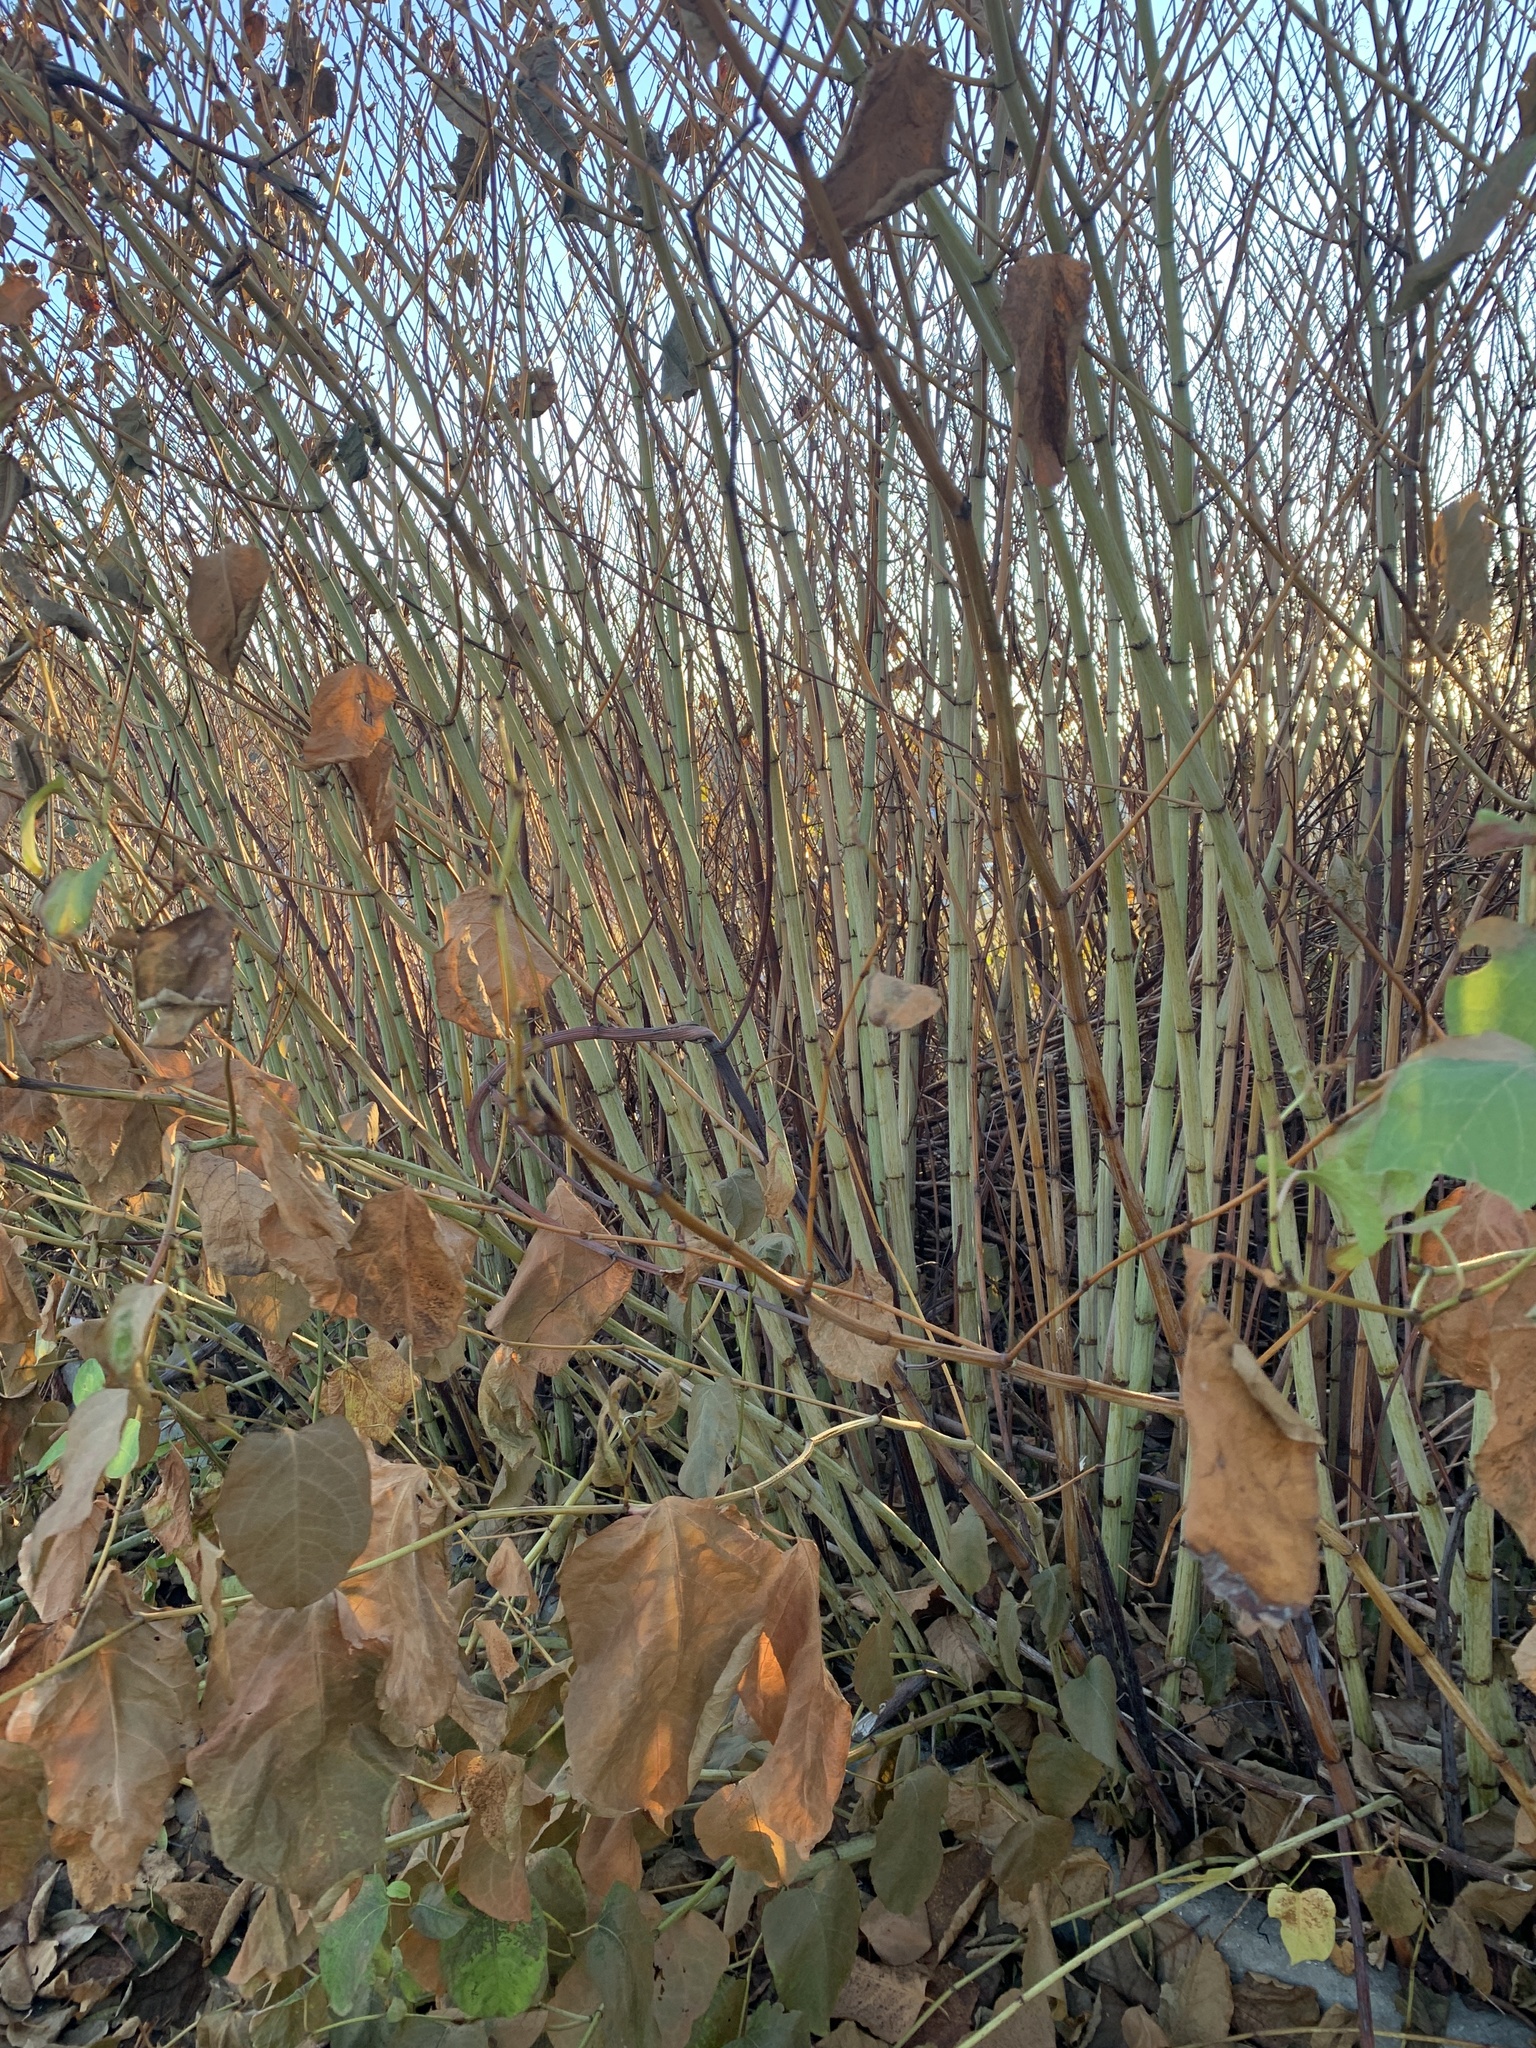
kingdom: Plantae
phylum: Tracheophyta
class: Magnoliopsida
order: Caryophyllales
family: Polygonaceae
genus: Reynoutria
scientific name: Reynoutria bohemica
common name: Bohemian knotweed
